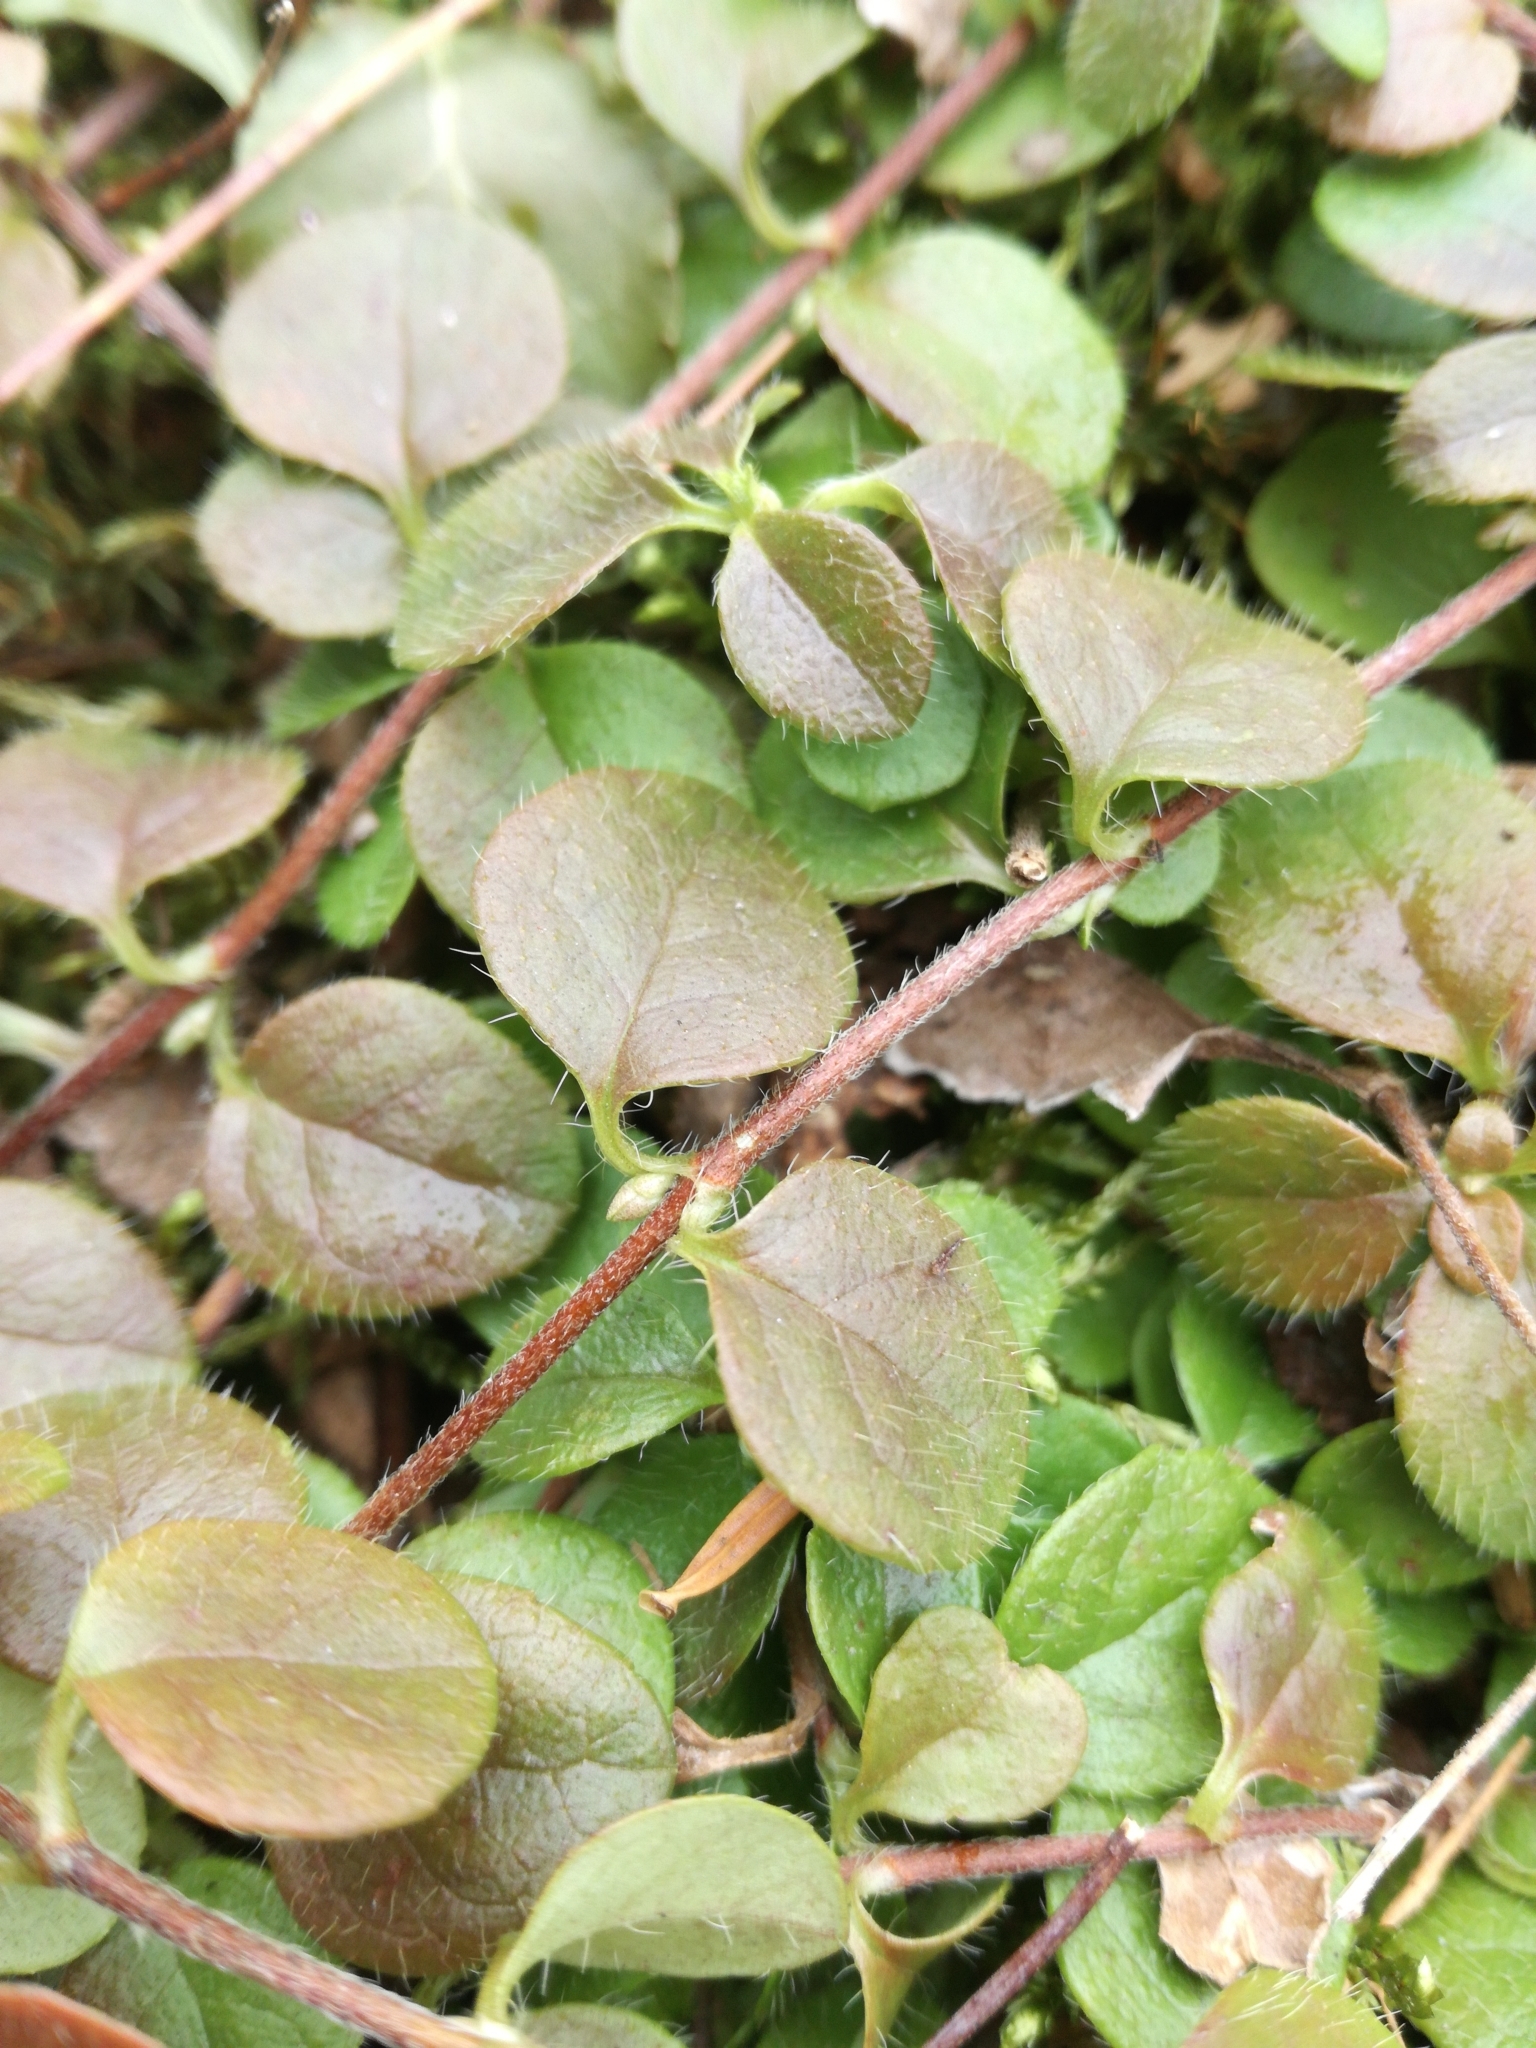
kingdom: Plantae
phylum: Tracheophyta
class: Magnoliopsida
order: Dipsacales
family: Caprifoliaceae
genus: Linnaea
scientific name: Linnaea borealis
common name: Twinflower
